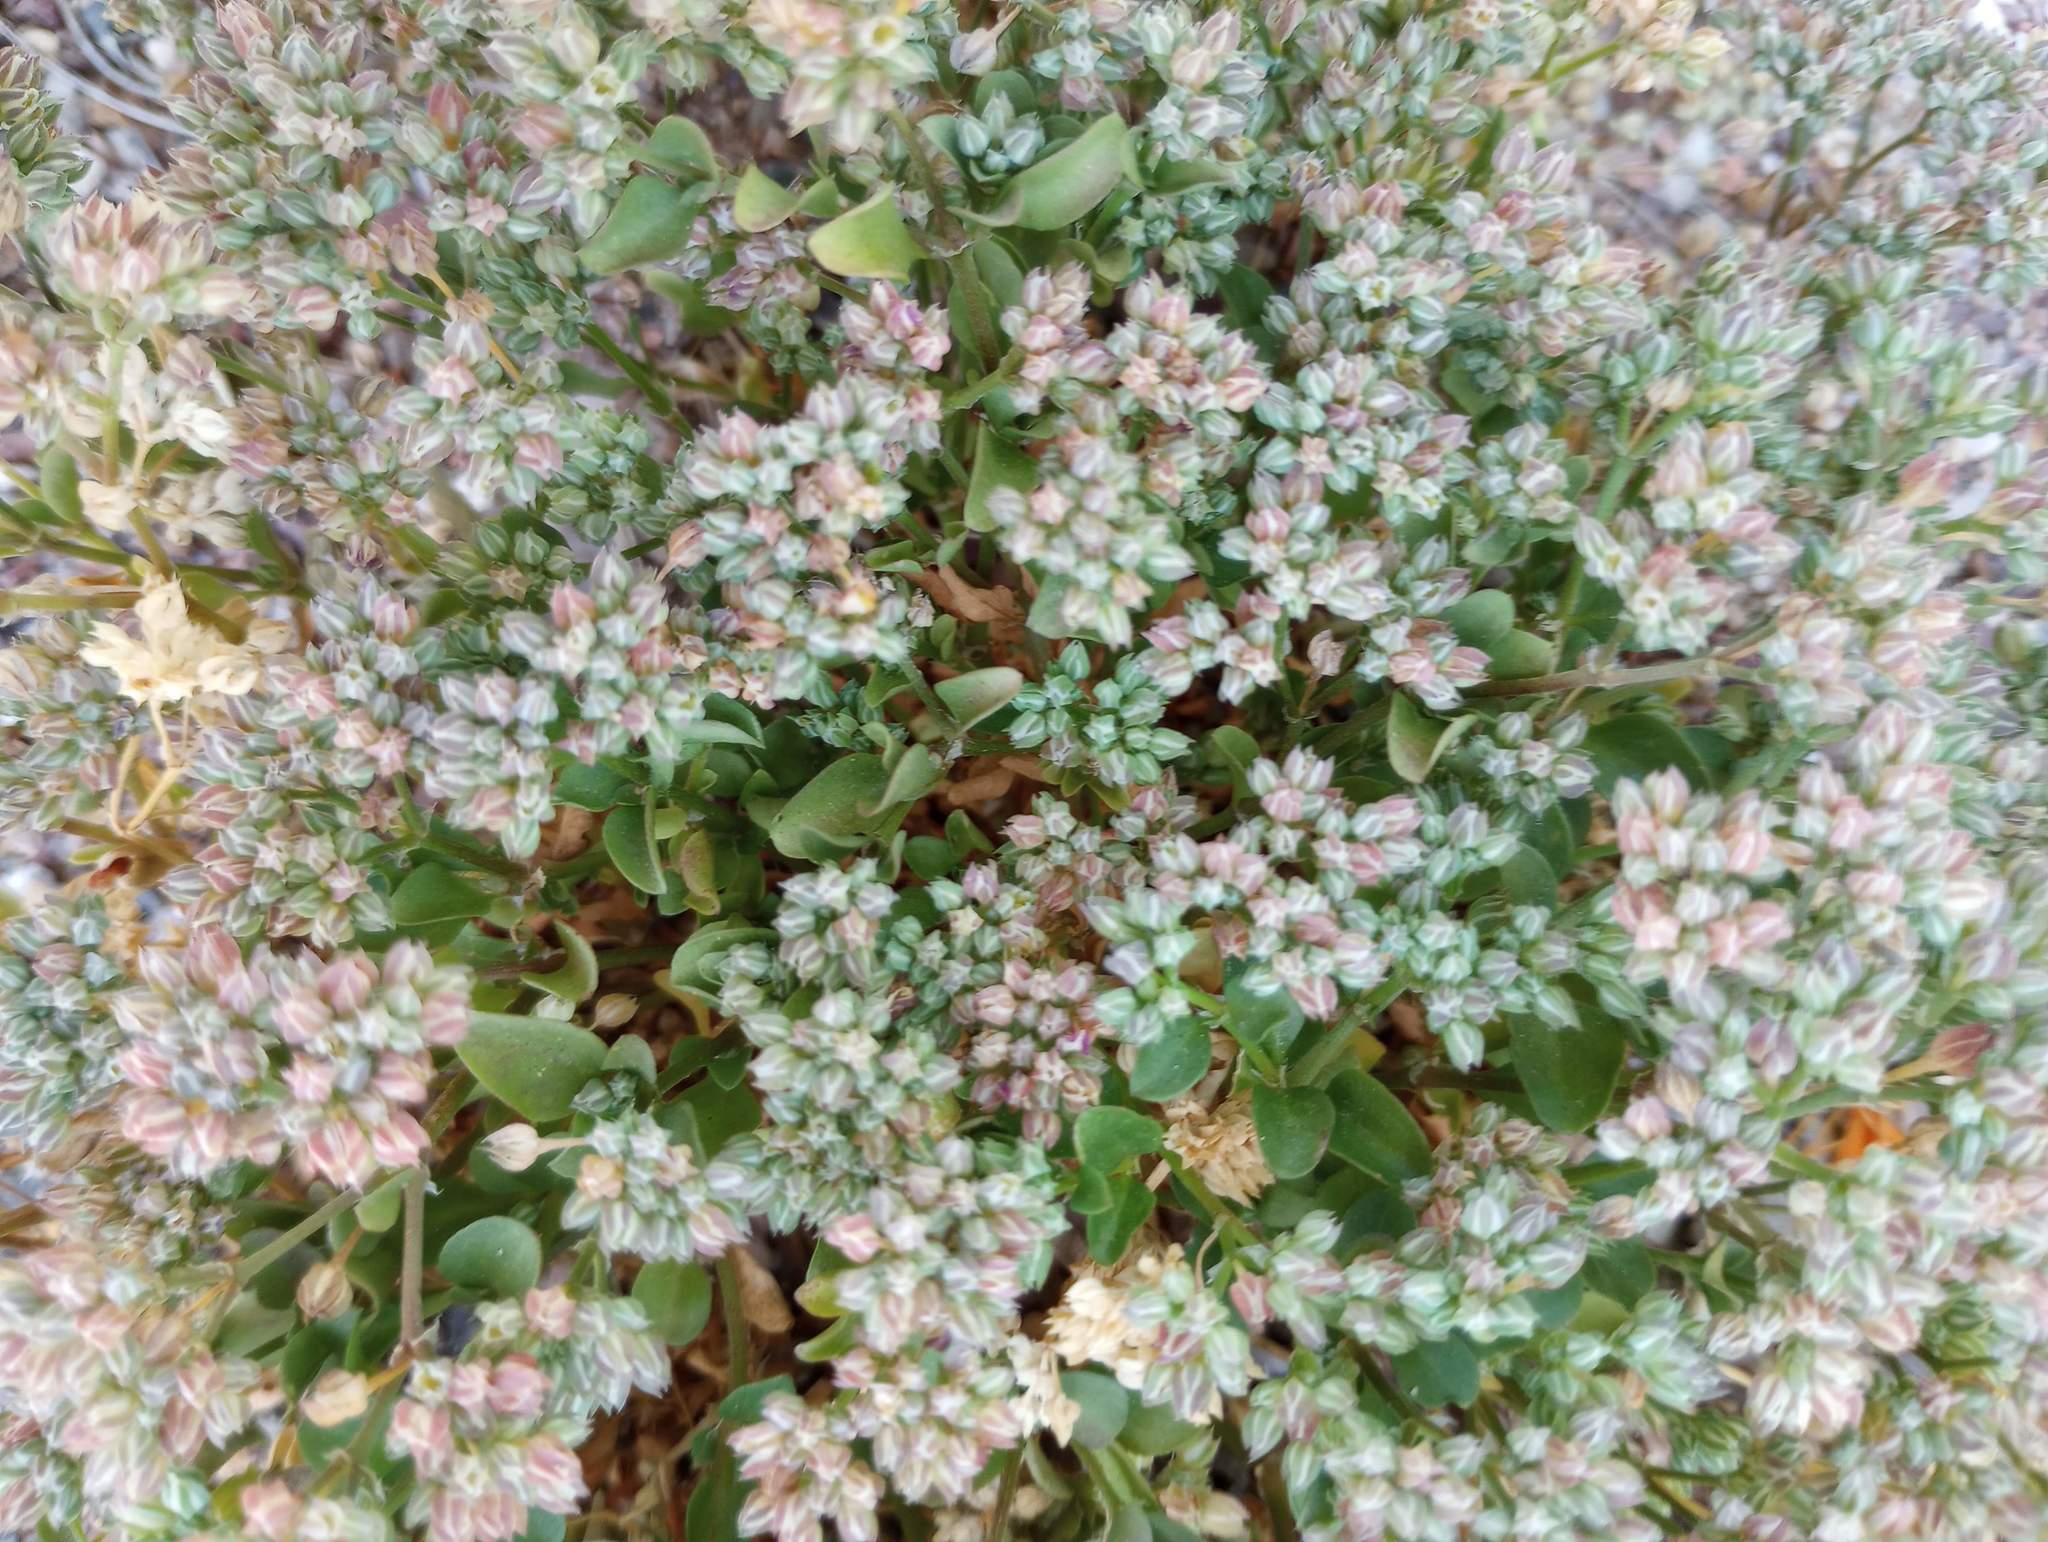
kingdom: Plantae
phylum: Tracheophyta
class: Magnoliopsida
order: Caryophyllales
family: Caryophyllaceae
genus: Polycarpon
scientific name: Polycarpon tetraphyllum
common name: Four-leaved all-seed
